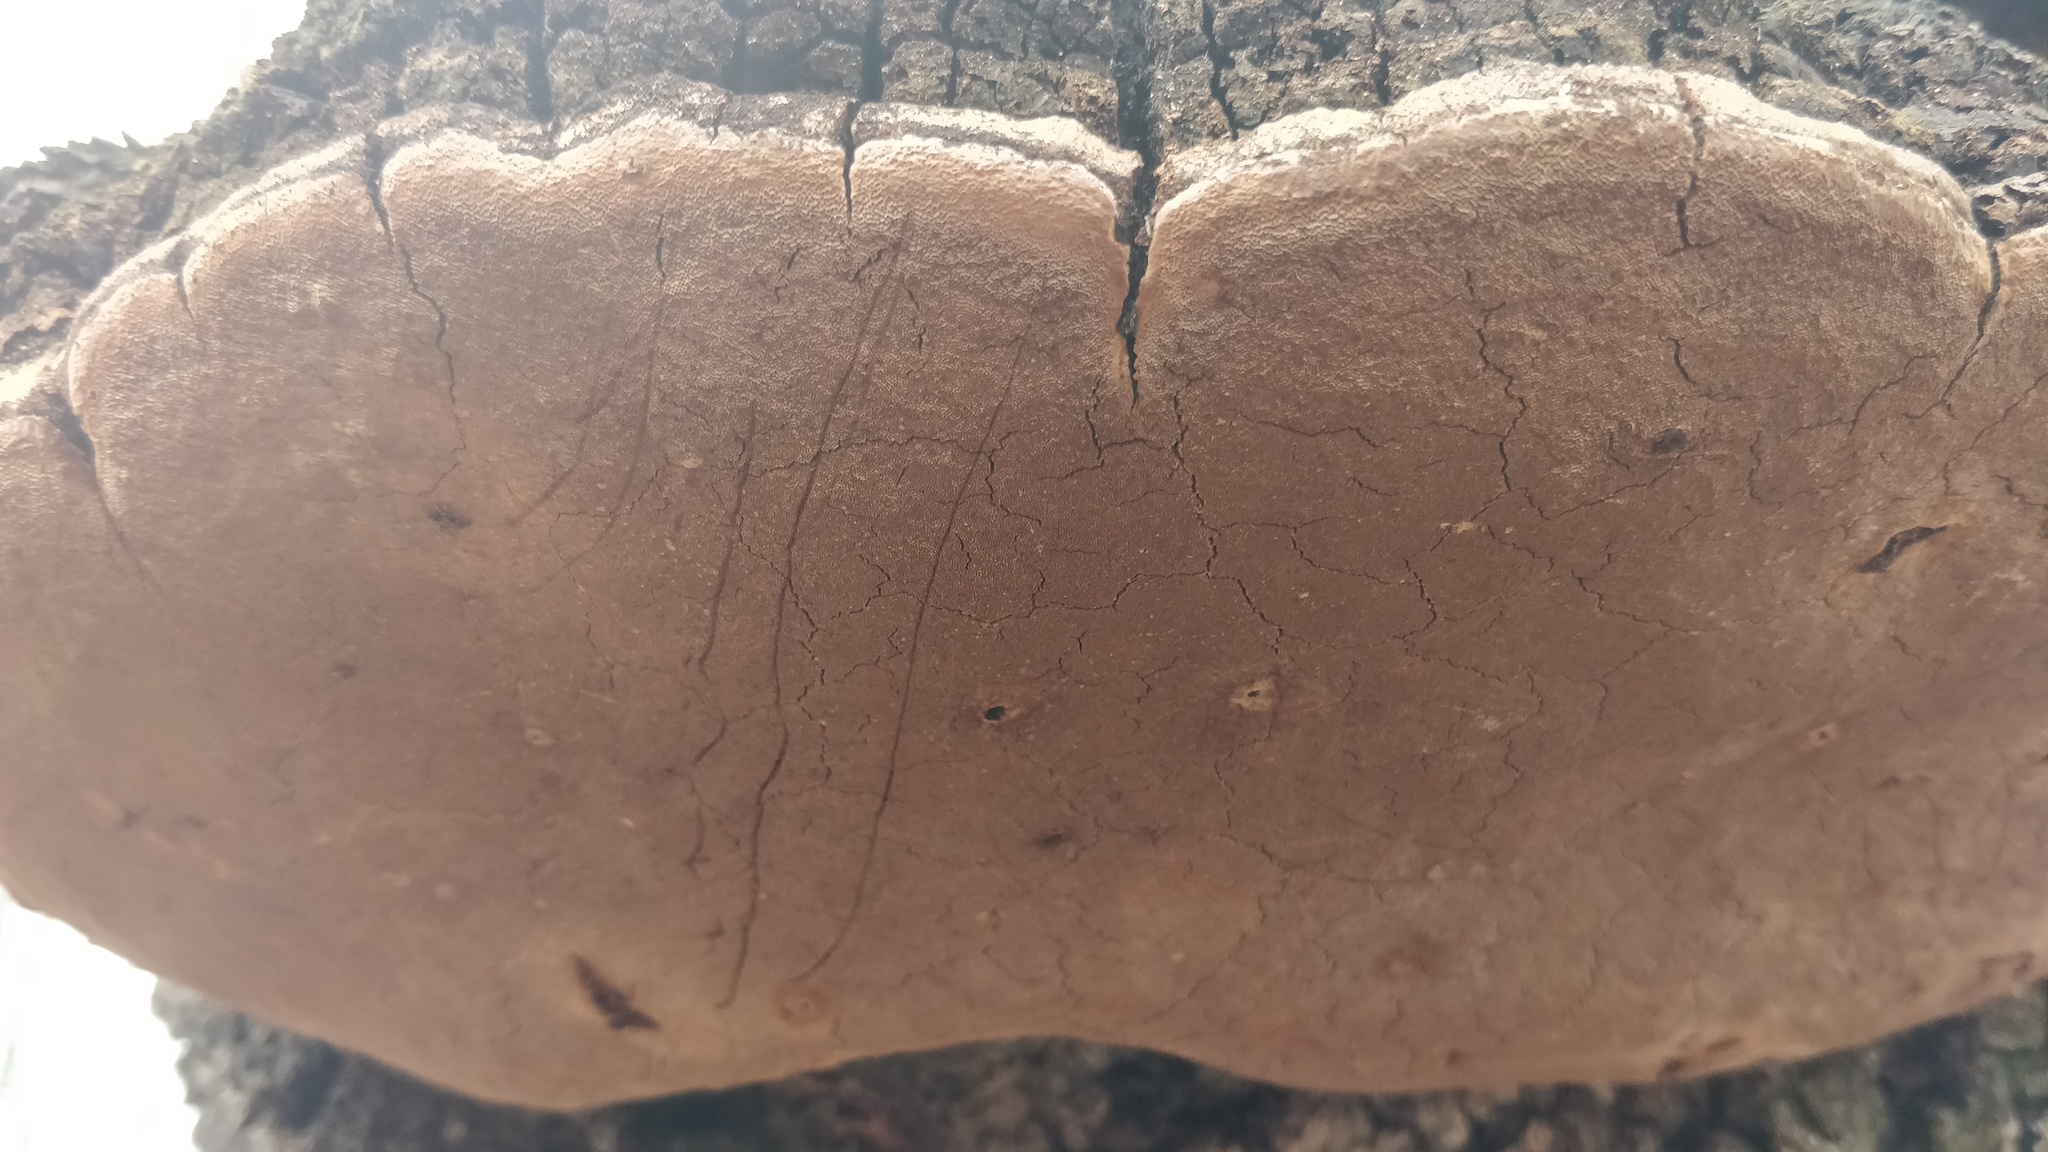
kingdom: Fungi
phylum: Basidiomycota
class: Agaricomycetes
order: Hymenochaetales
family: Hymenochaetaceae
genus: Phellinus
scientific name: Phellinus robiniae
